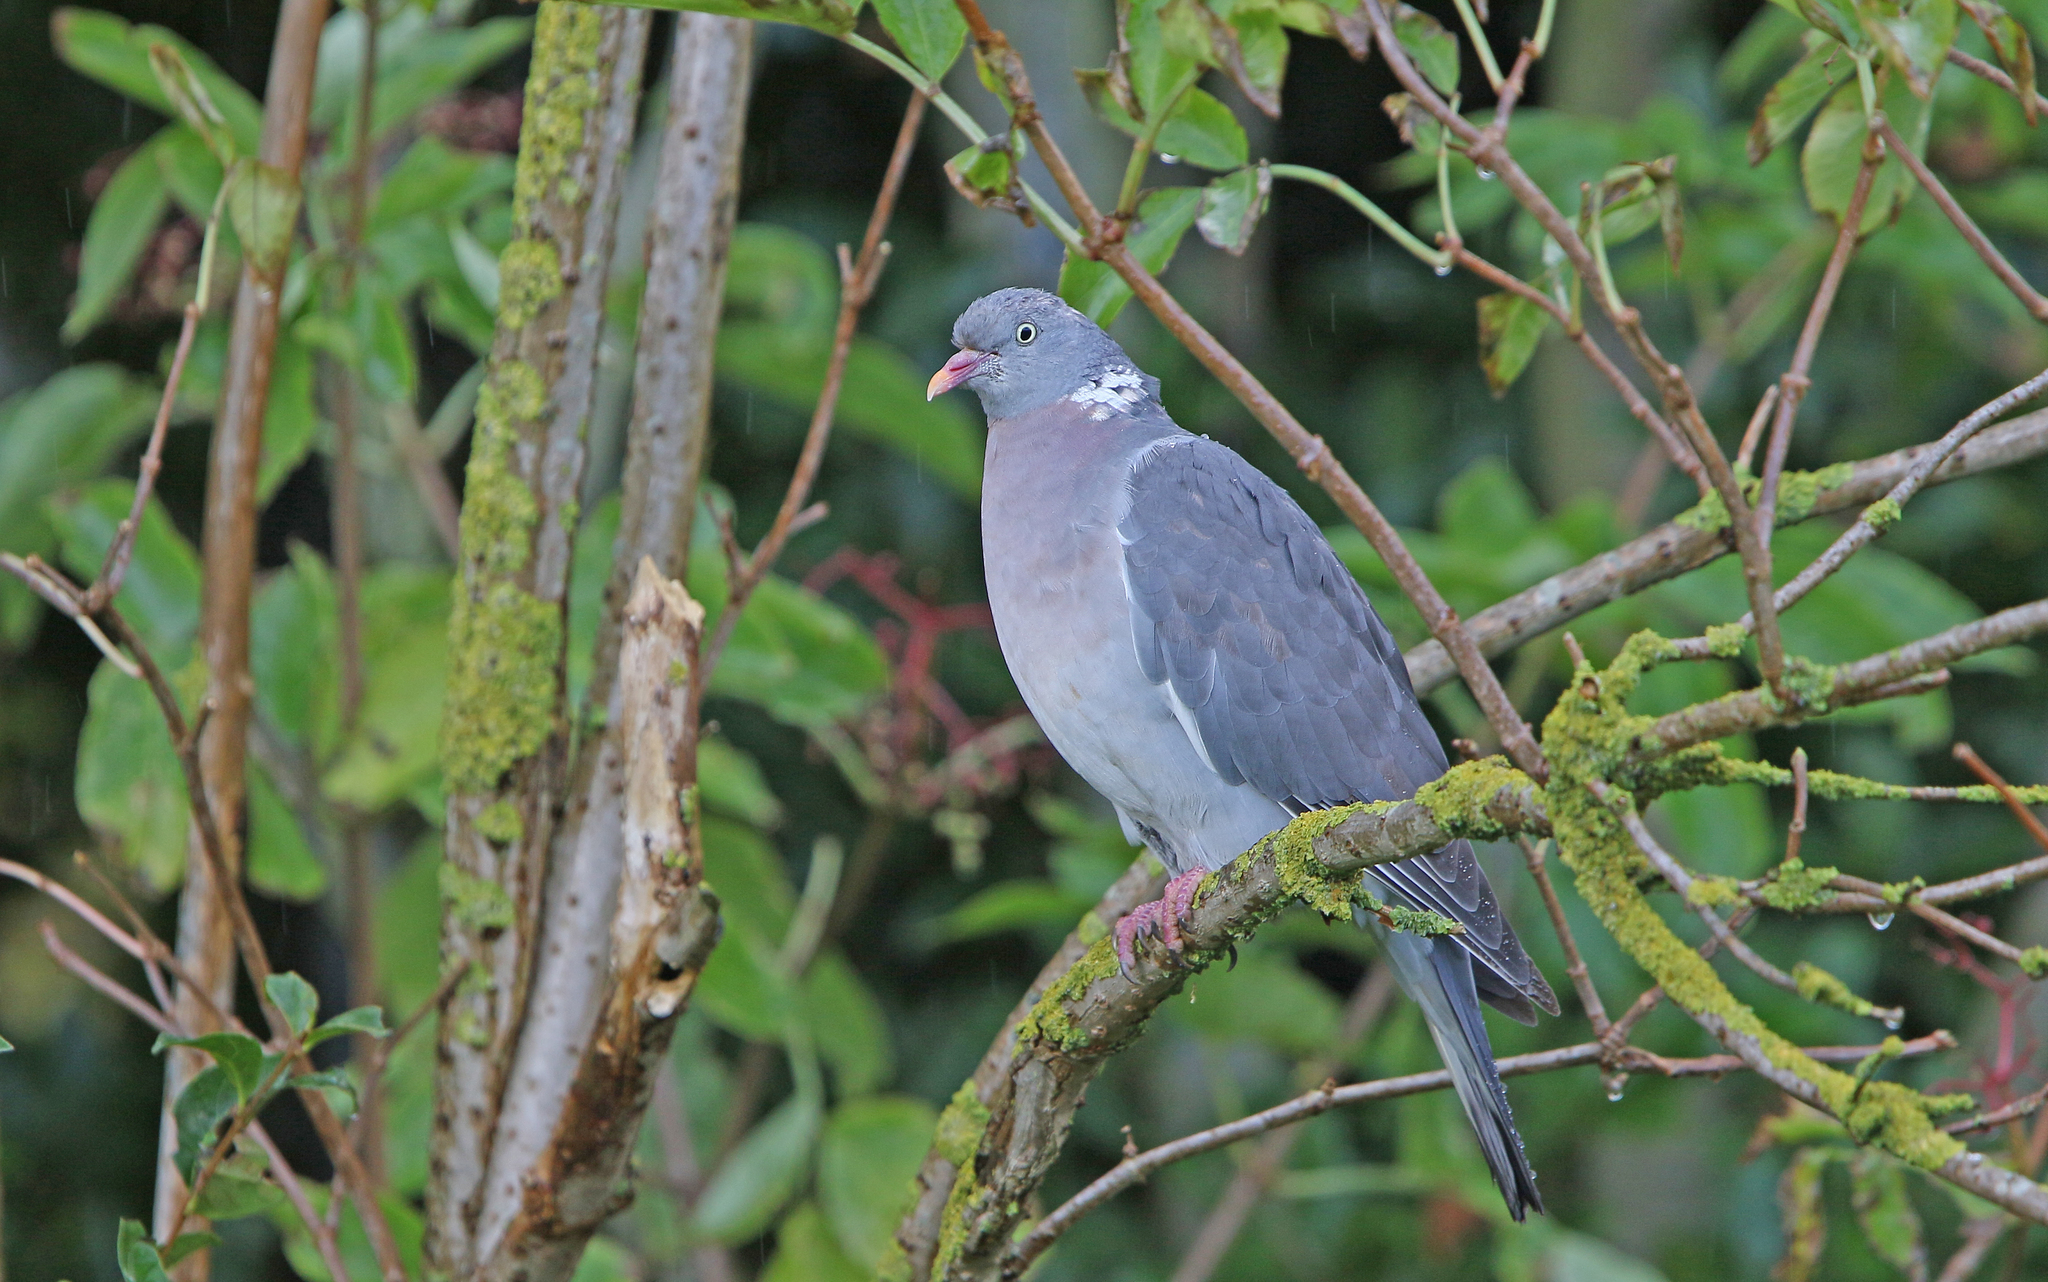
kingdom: Animalia
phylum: Chordata
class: Aves
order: Columbiformes
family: Columbidae
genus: Columba
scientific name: Columba palumbus
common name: Common wood pigeon
